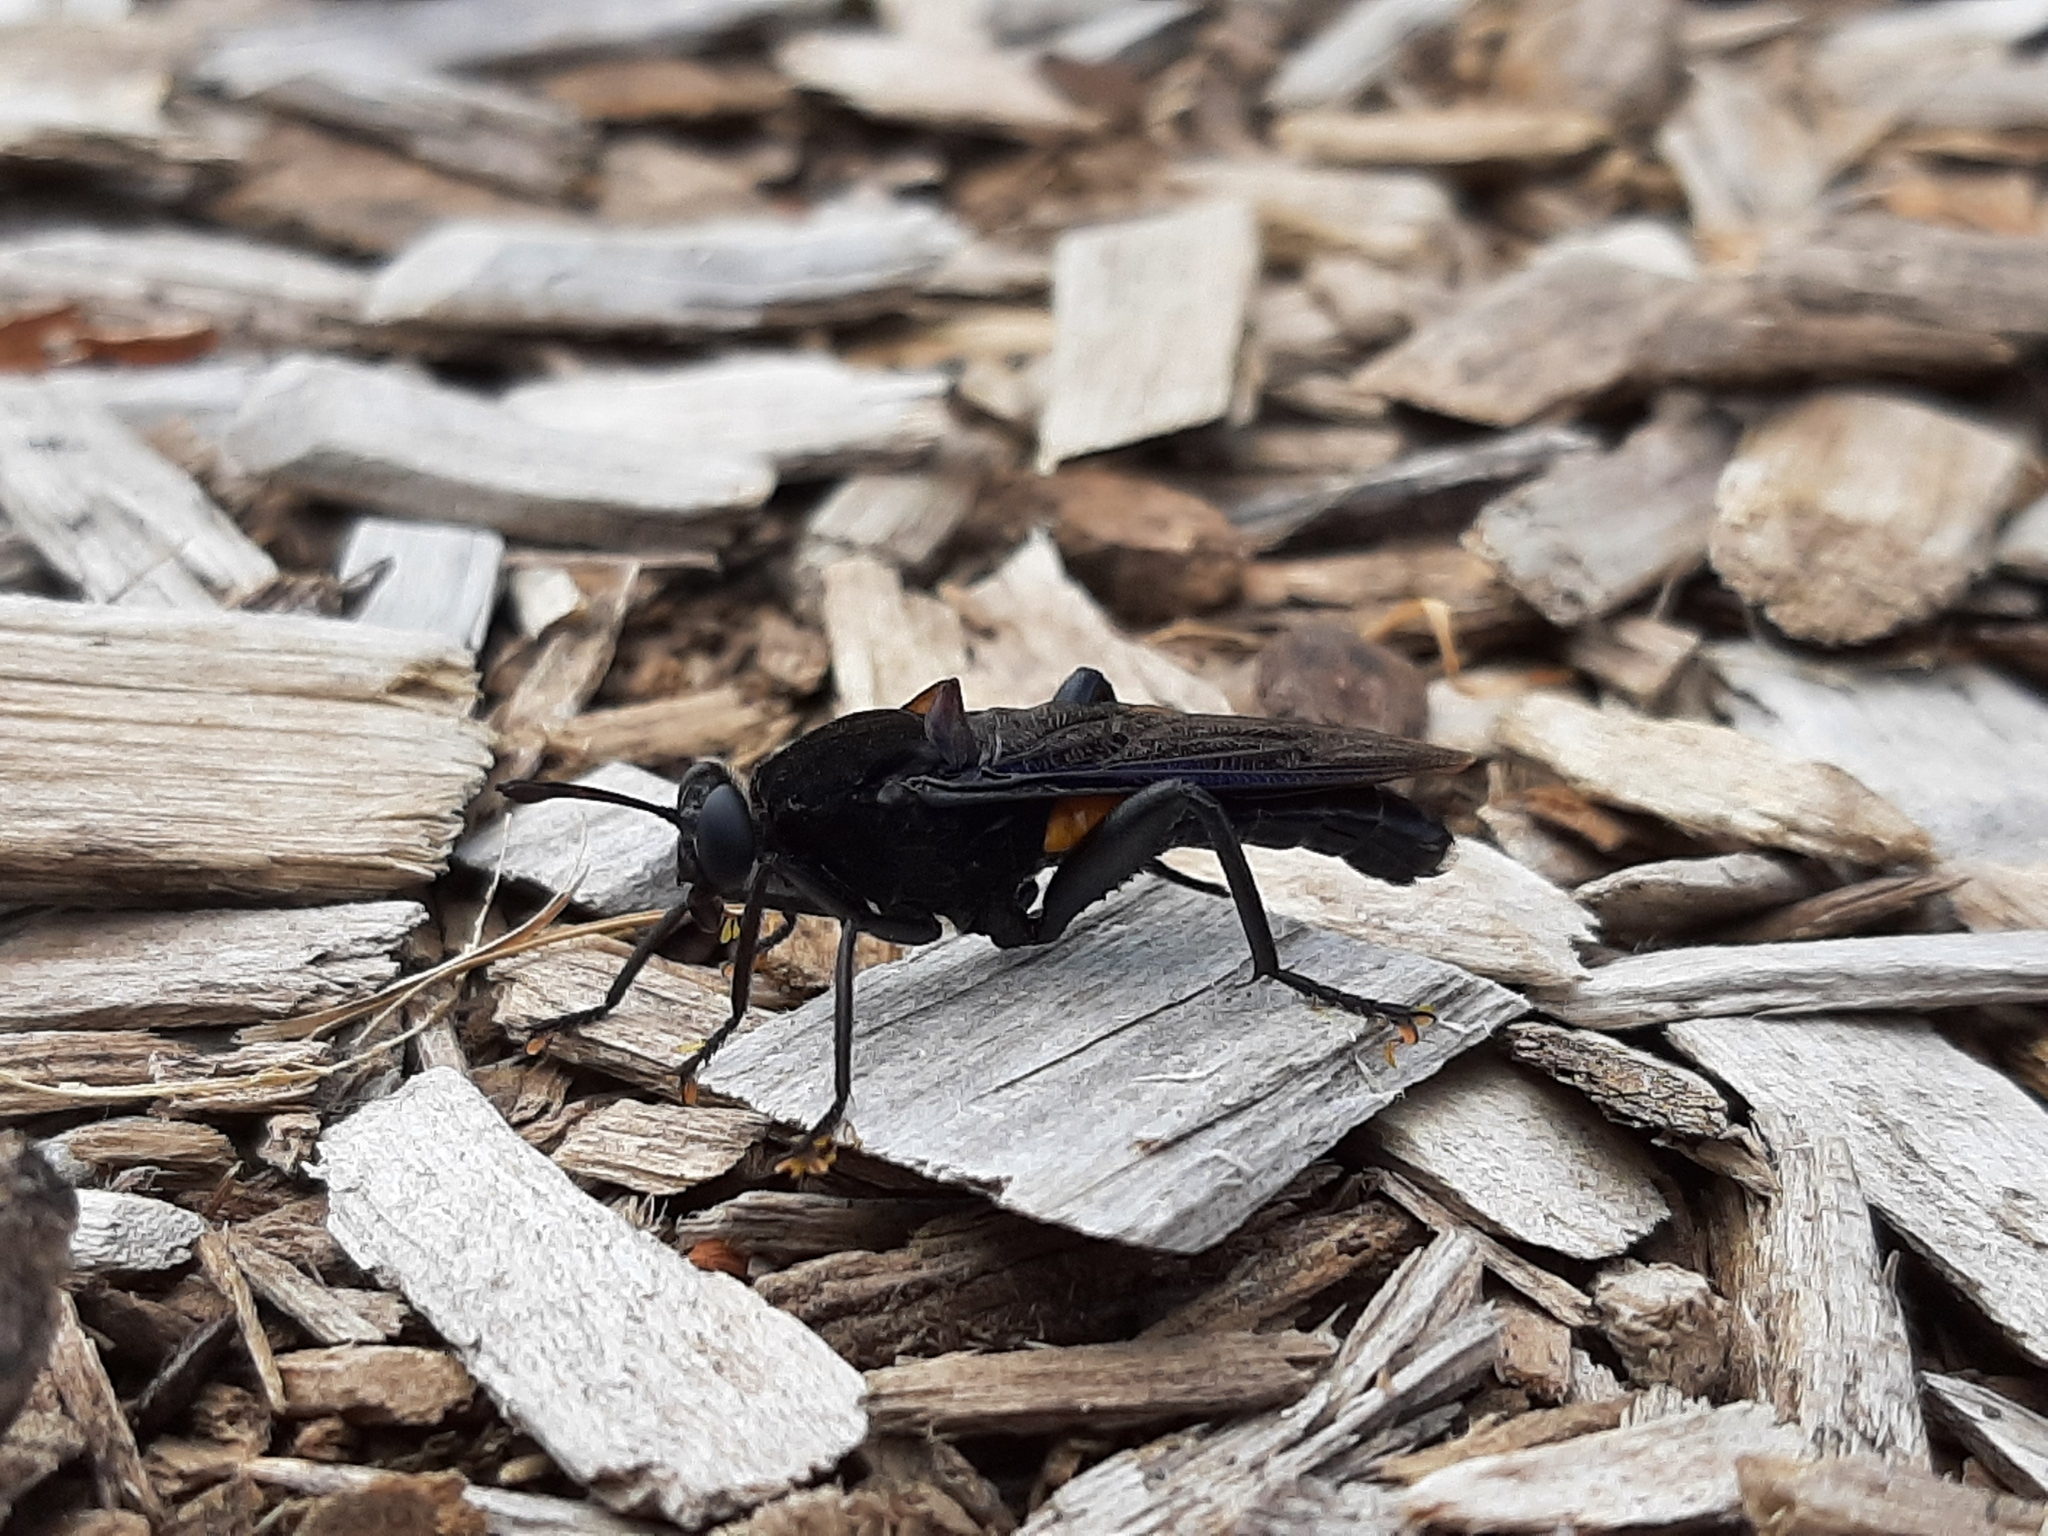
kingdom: Animalia
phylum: Arthropoda
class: Insecta
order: Diptera
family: Mydidae
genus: Mydas
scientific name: Mydas clavatus
